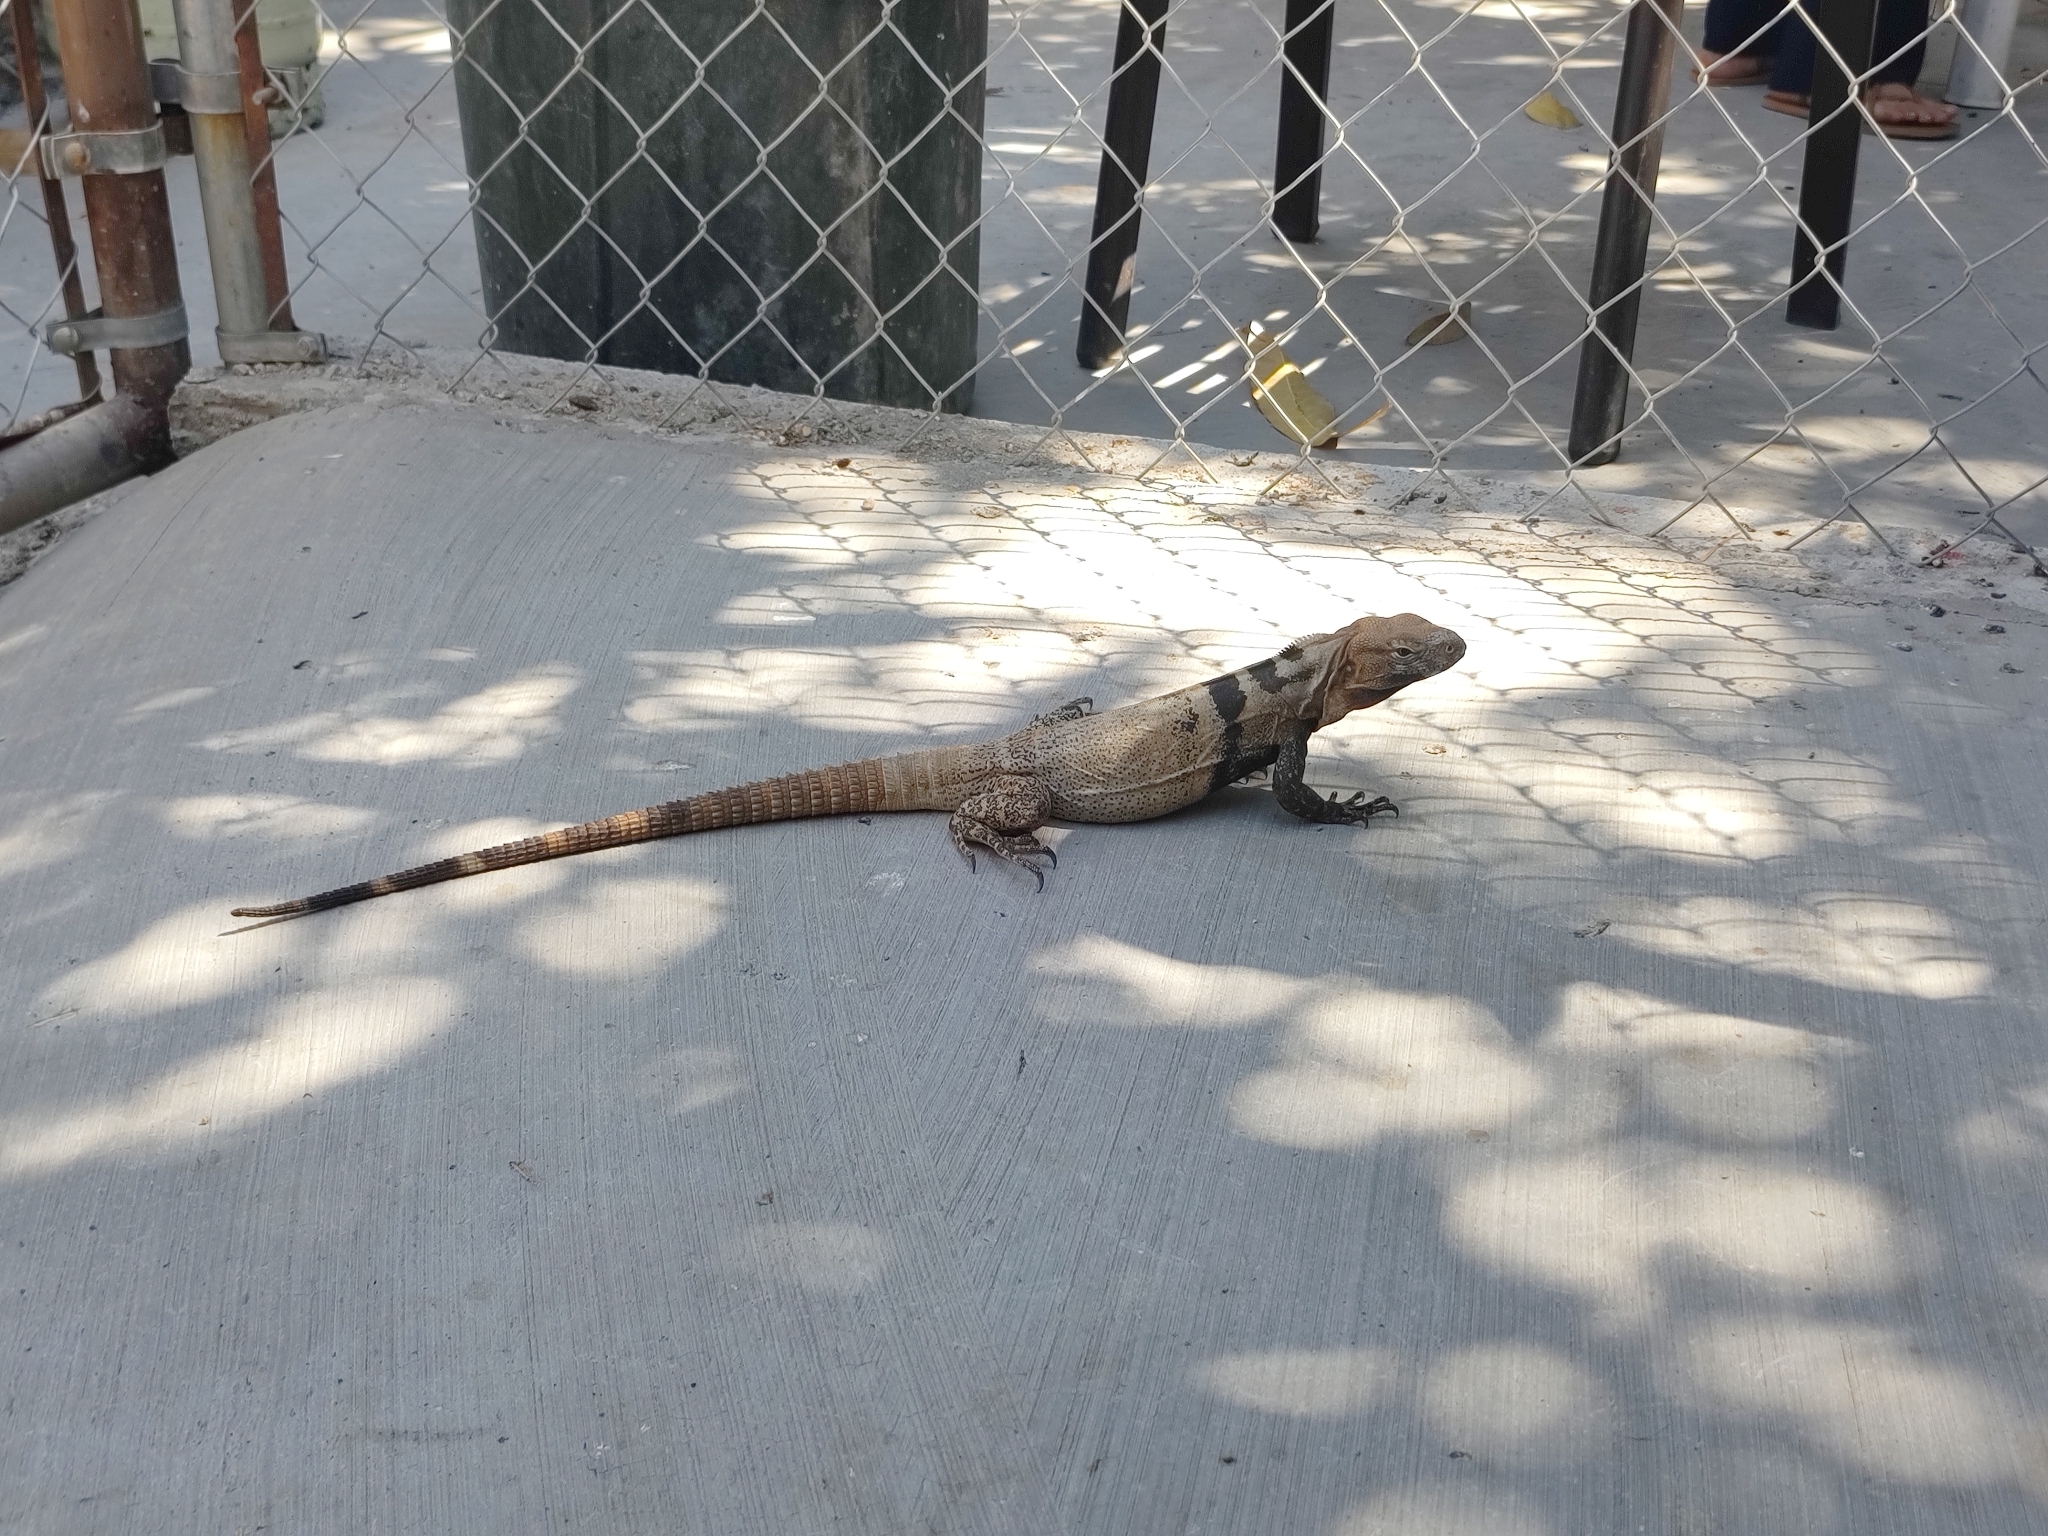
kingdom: Animalia
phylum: Chordata
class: Squamata
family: Iguanidae
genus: Ctenosaura
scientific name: Ctenosaura hemilopha
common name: Baja california spiny- tailed iguana
